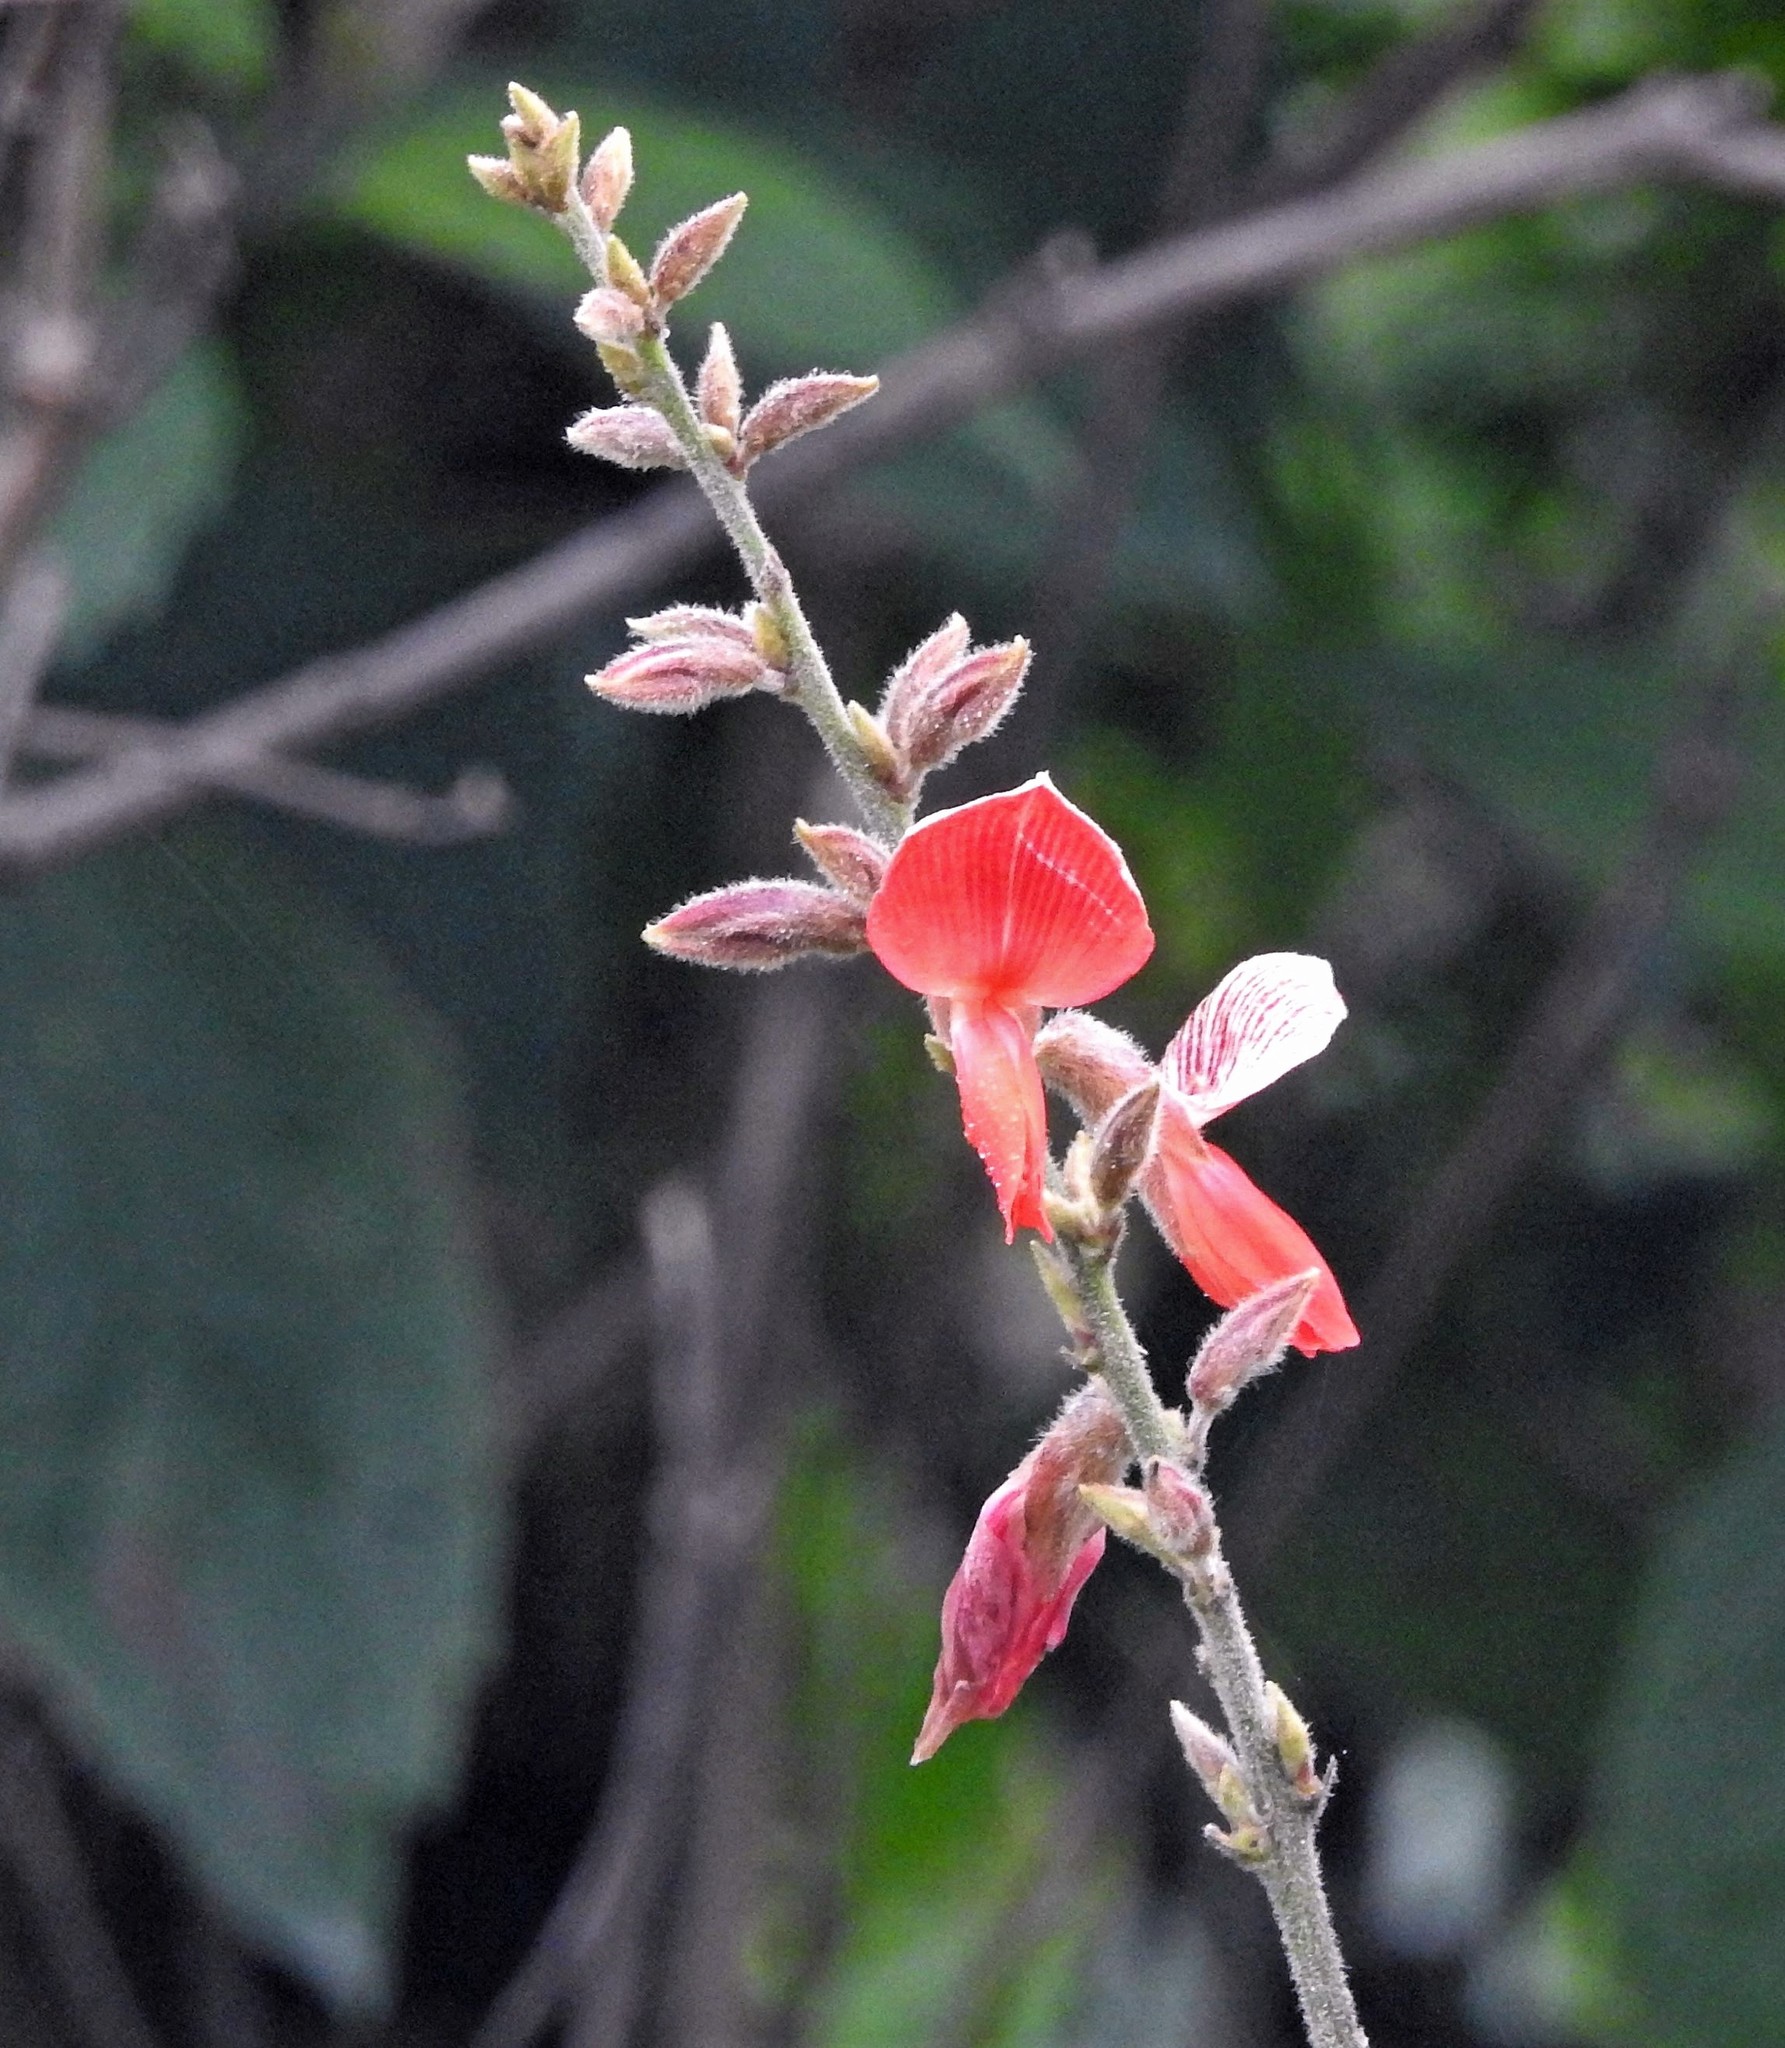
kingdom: Plantae
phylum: Tracheophyta
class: Magnoliopsida
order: Fabales
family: Fabaceae
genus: Cerradicola
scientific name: Cerradicola praeandina
